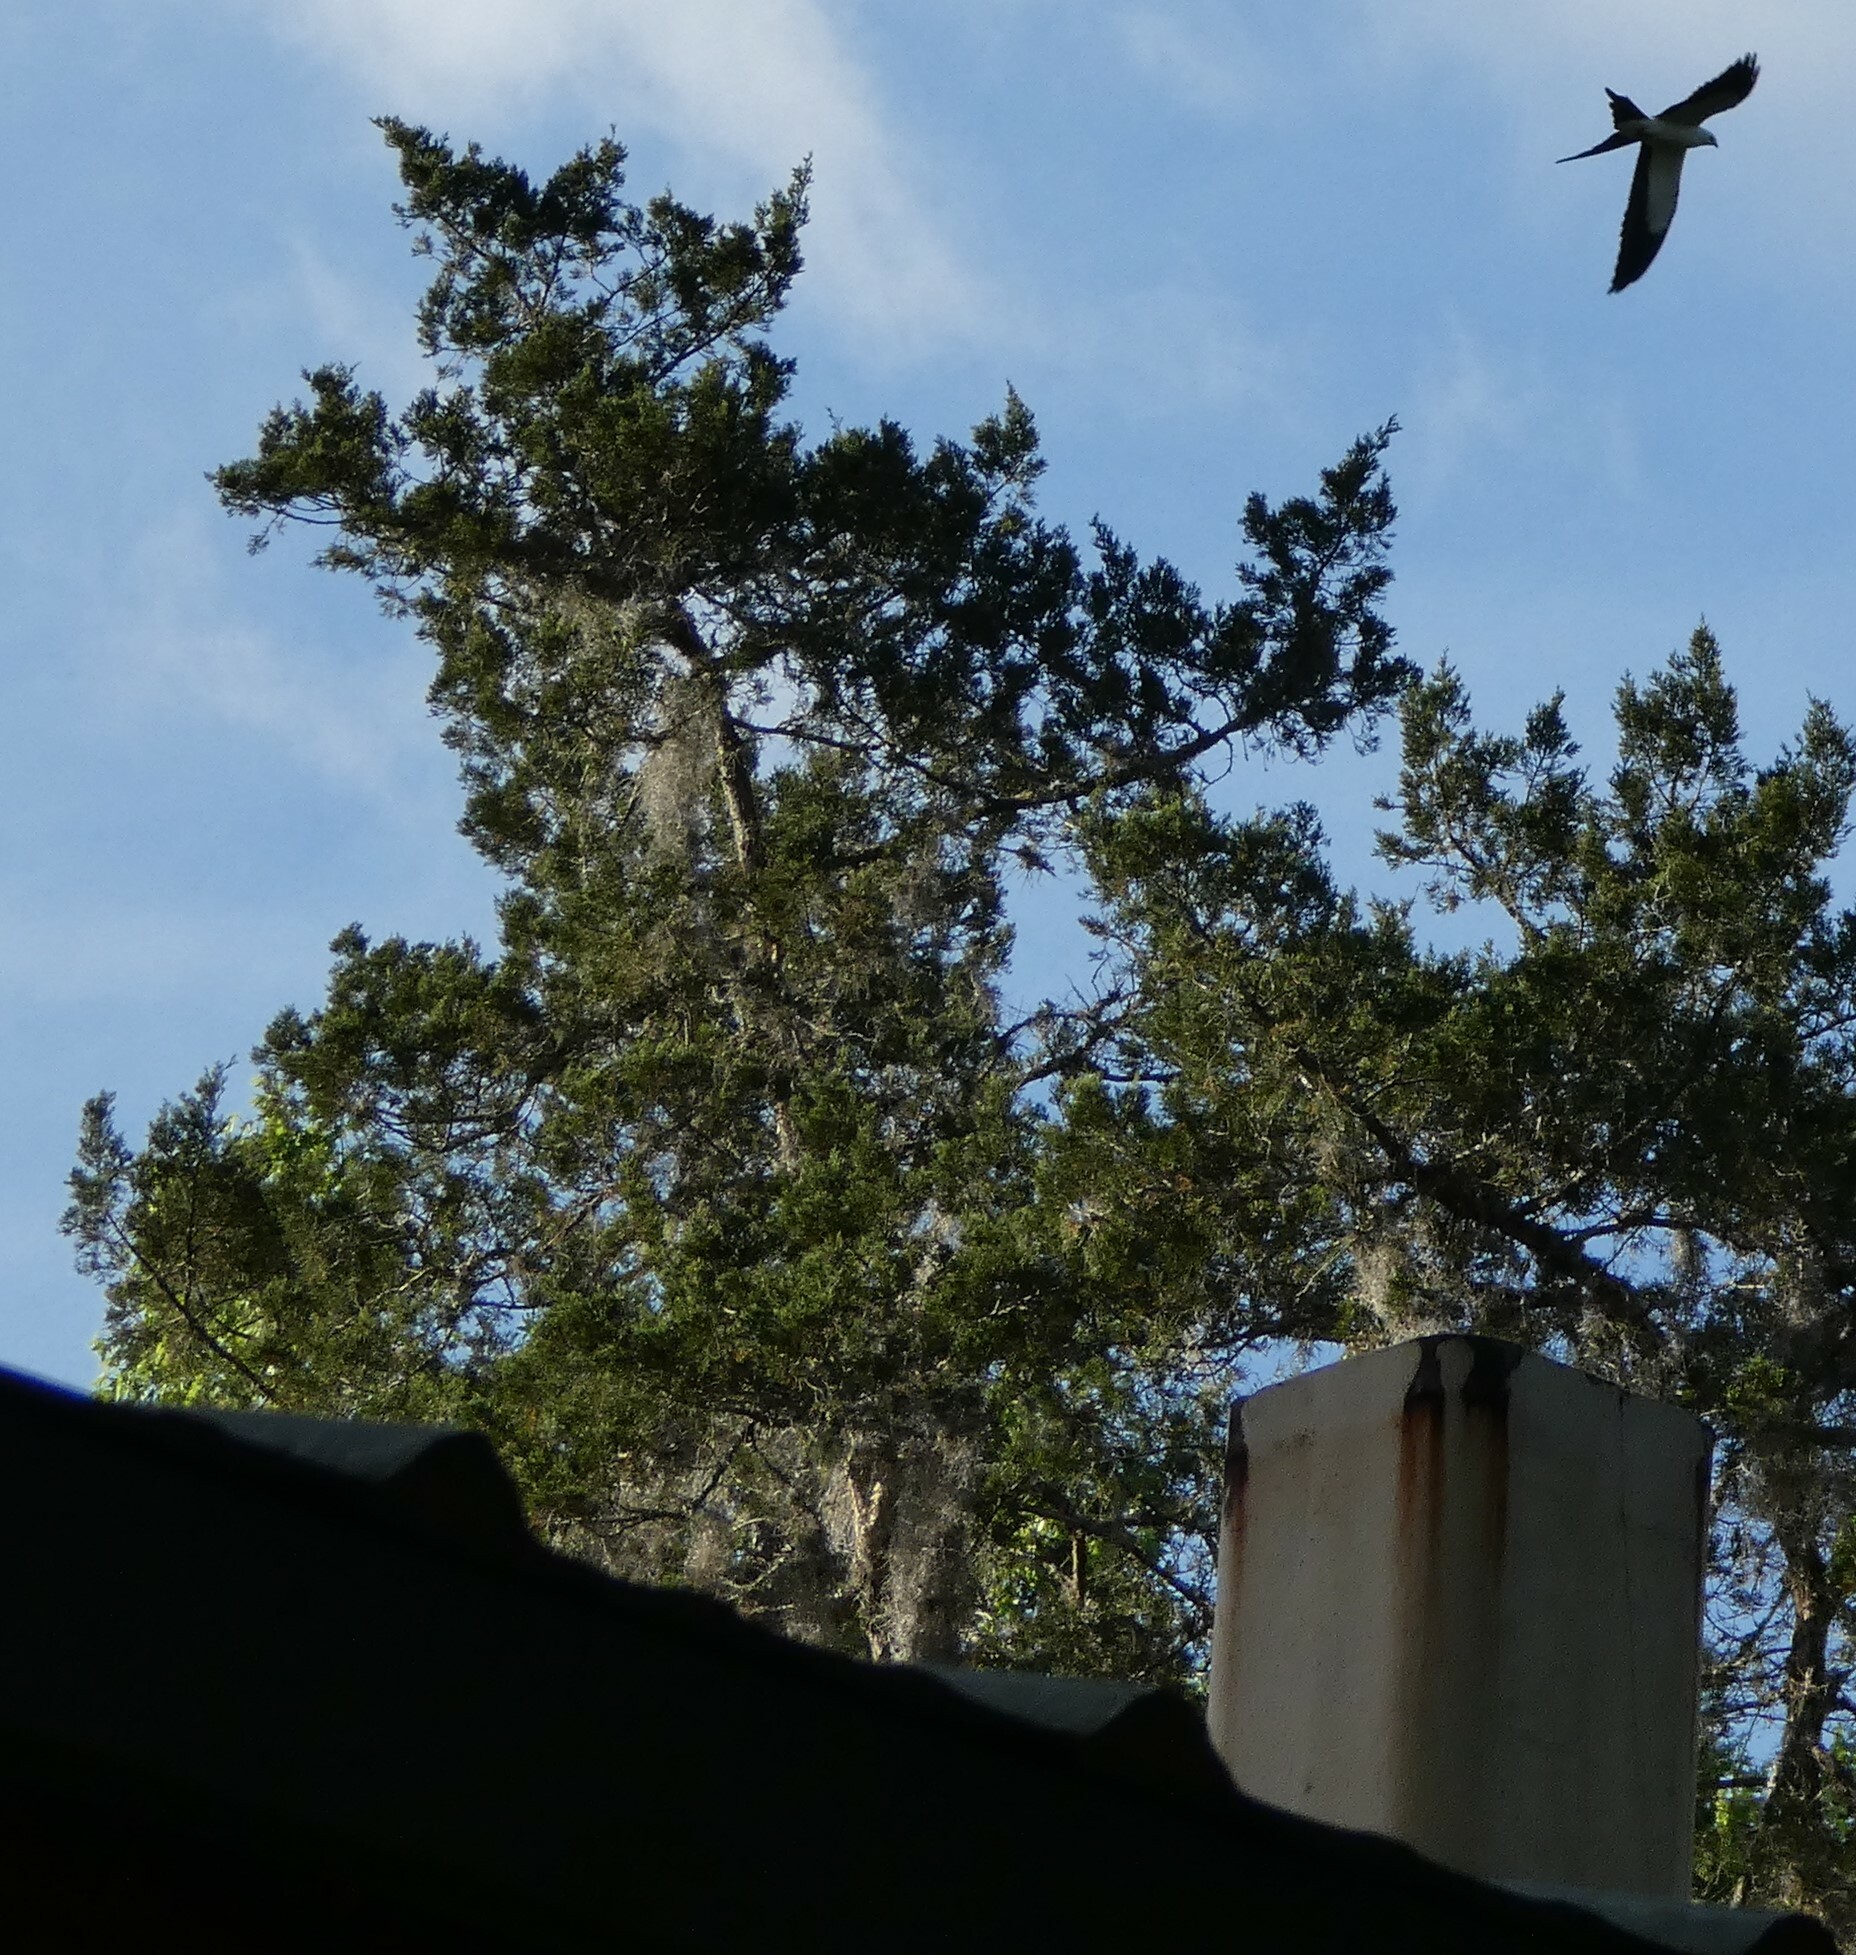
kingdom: Animalia
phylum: Chordata
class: Aves
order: Accipitriformes
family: Accipitridae
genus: Elanoides
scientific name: Elanoides forficatus
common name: Swallow-tailed kite
